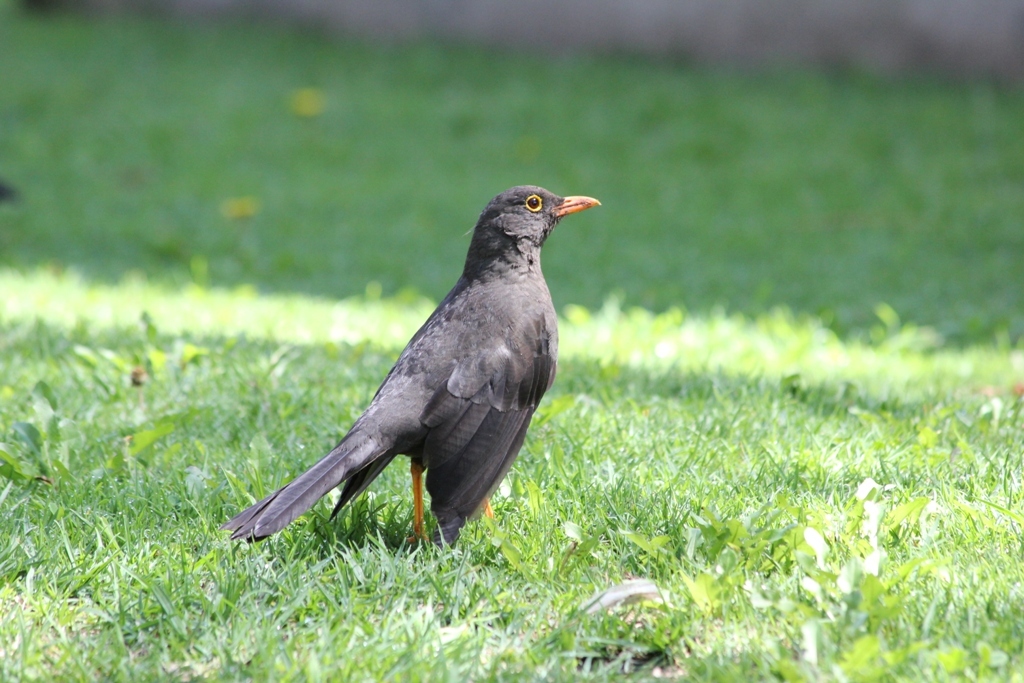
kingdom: Animalia
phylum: Chordata
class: Aves
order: Passeriformes
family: Turdidae
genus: Turdus
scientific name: Turdus fuscater
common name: Great thrush
